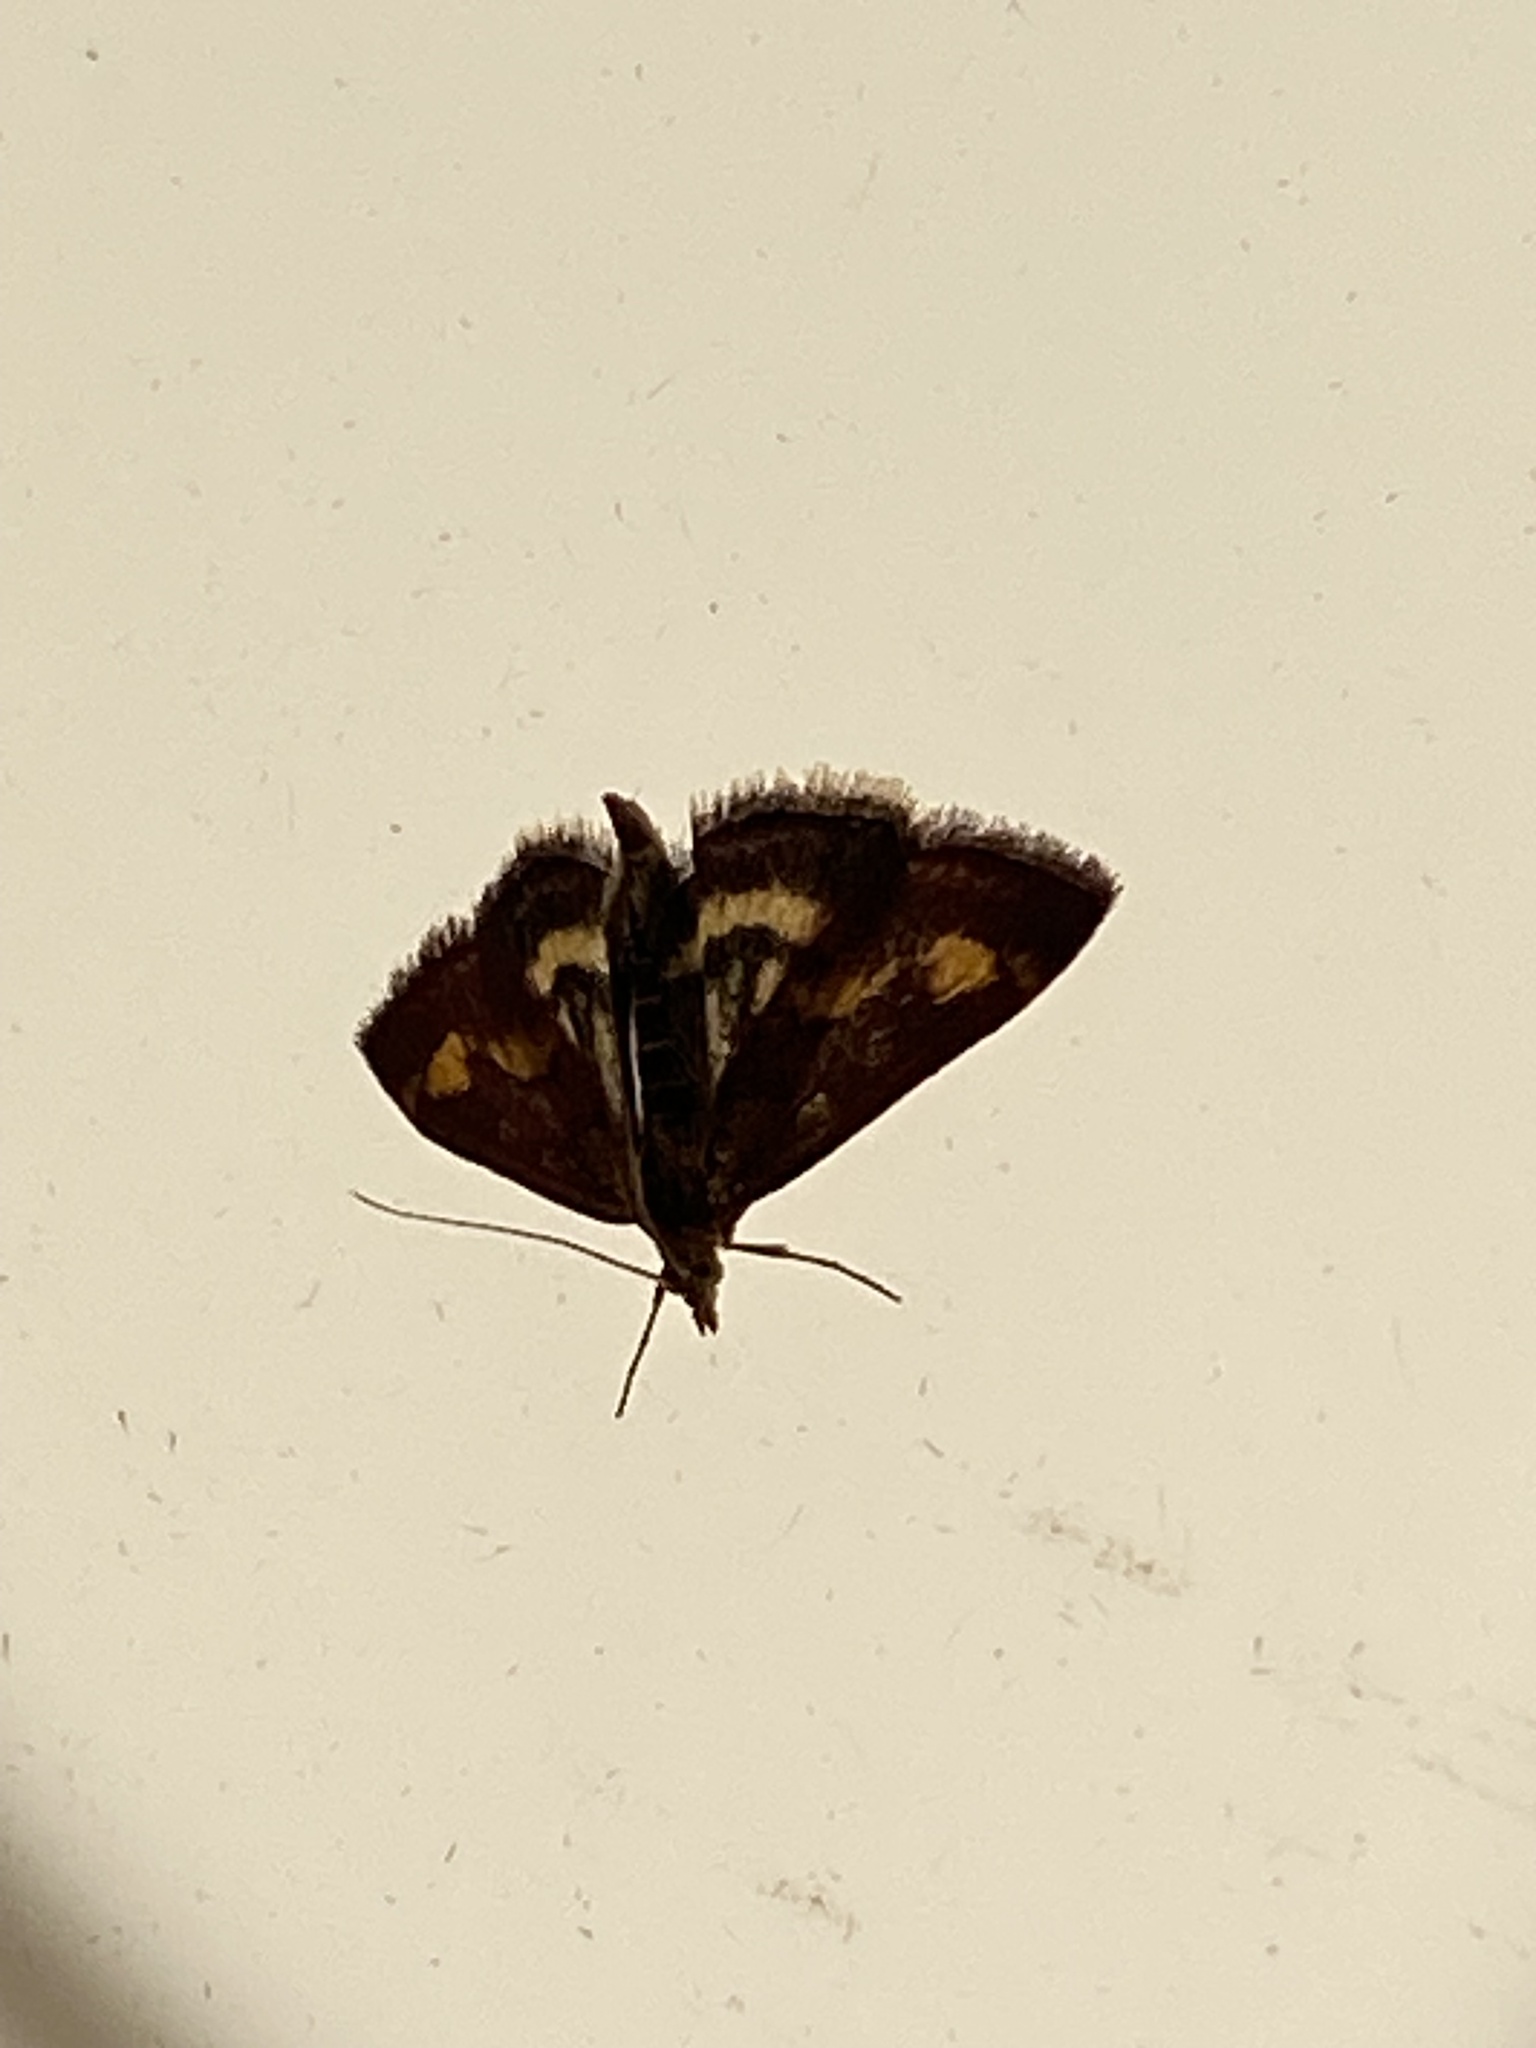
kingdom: Animalia
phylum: Arthropoda
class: Insecta
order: Lepidoptera
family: Crambidae
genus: Pyrausta
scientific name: Pyrausta purpuralis
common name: Common purple & gold
